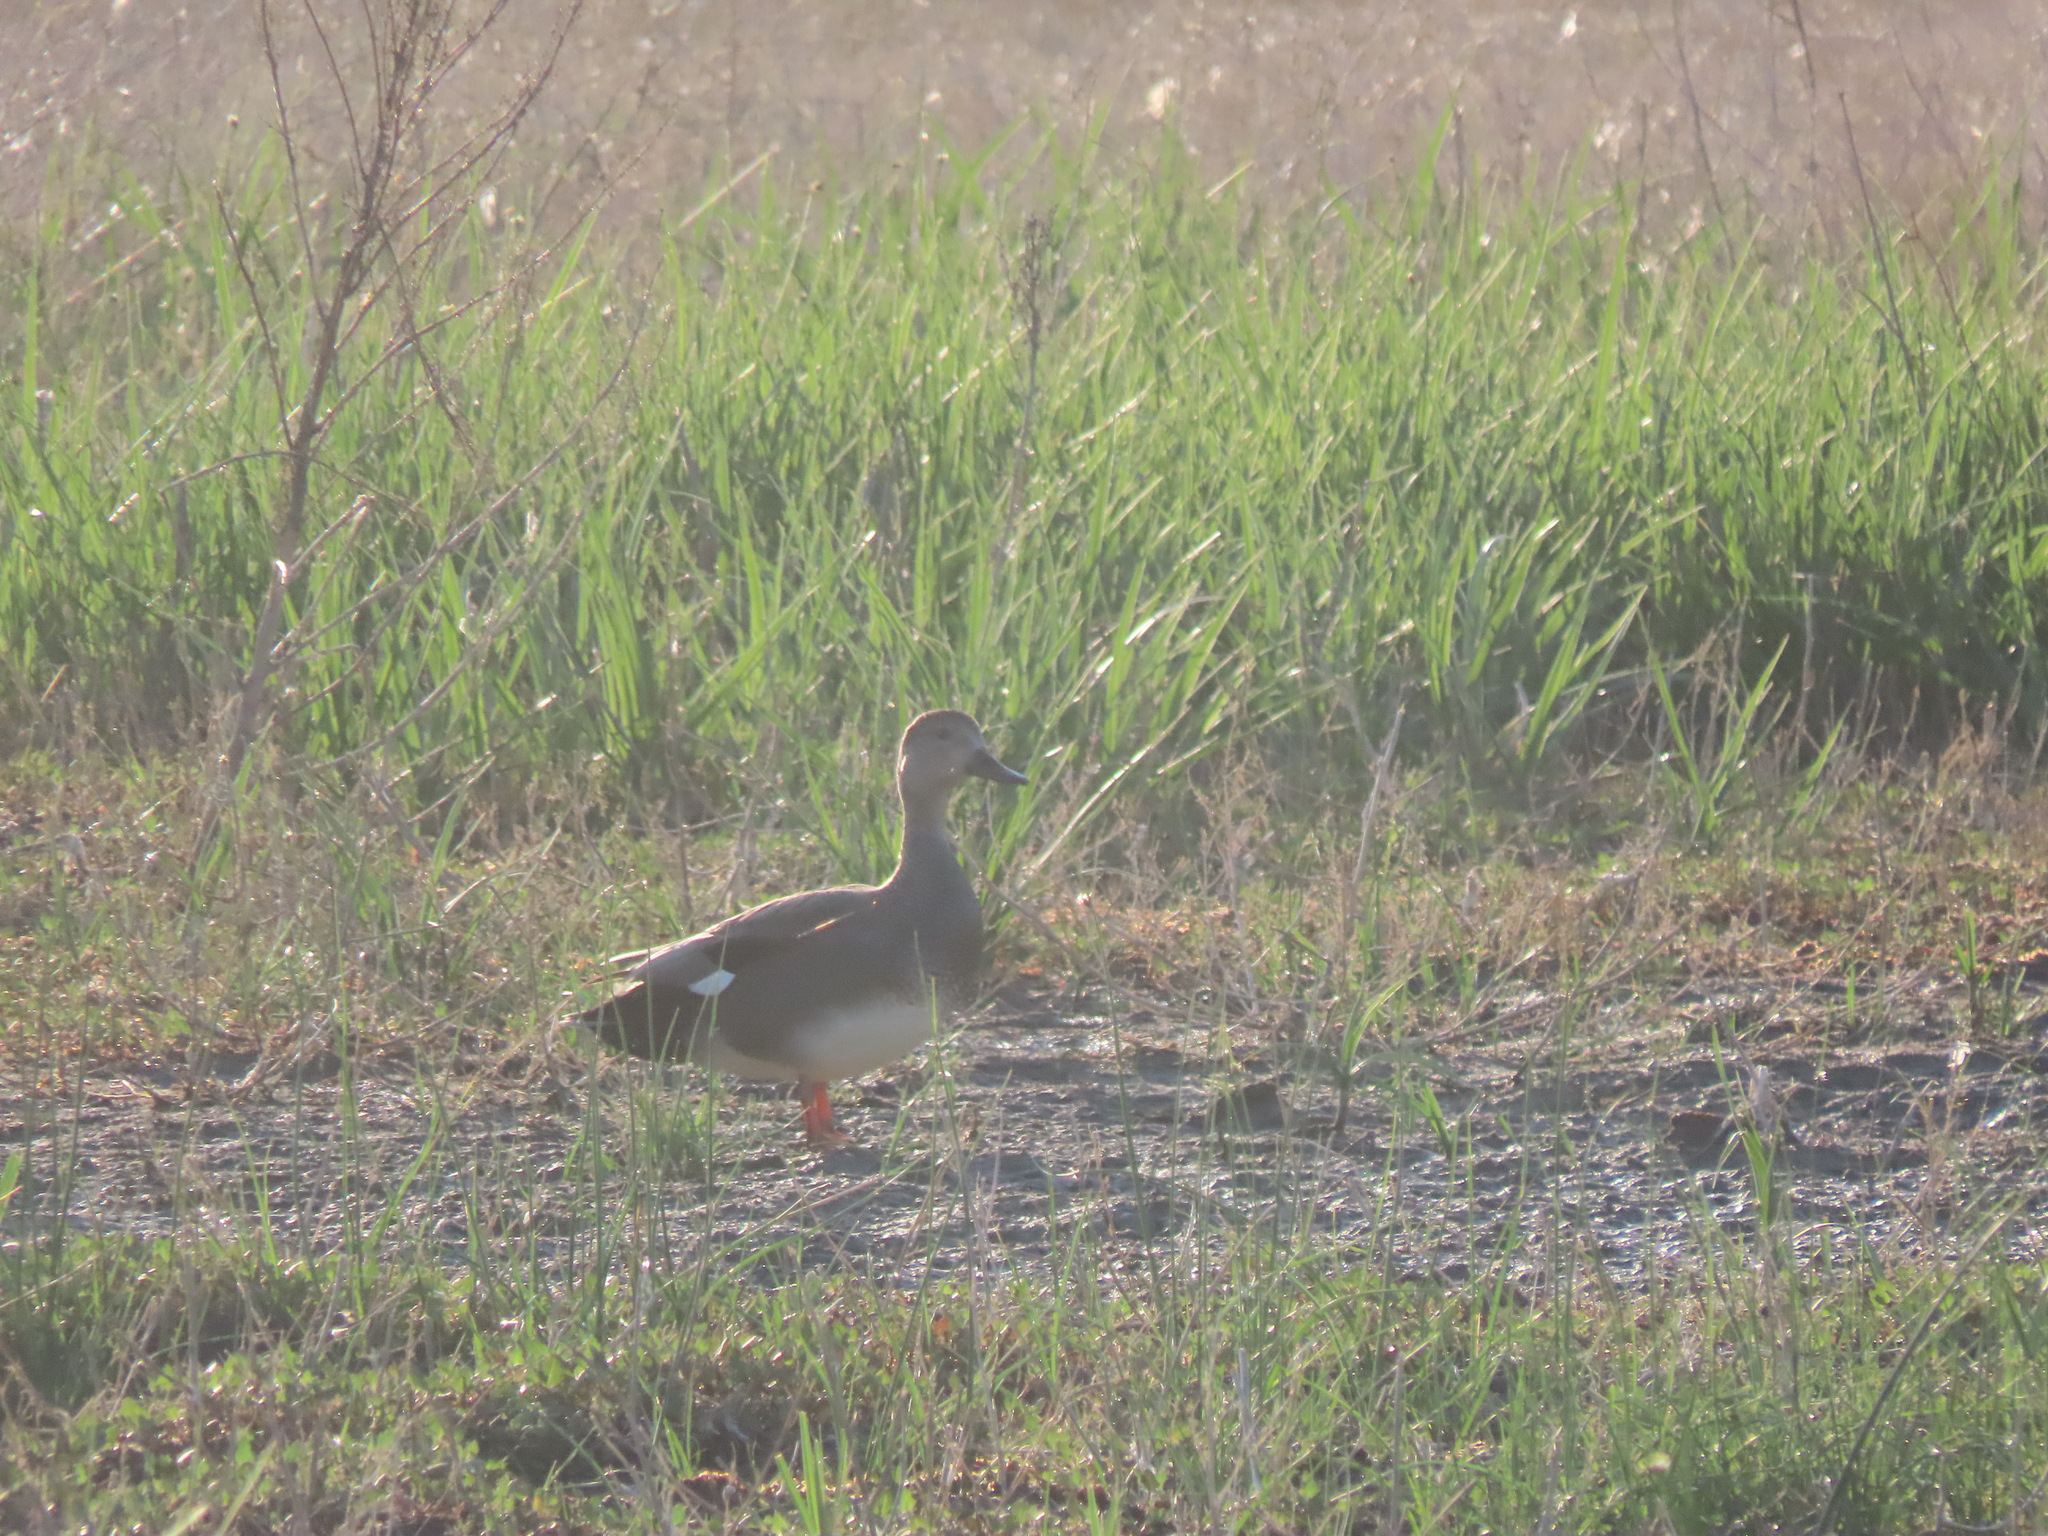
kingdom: Animalia
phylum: Chordata
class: Aves
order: Anseriformes
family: Anatidae
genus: Mareca
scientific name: Mareca strepera
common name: Gadwall
